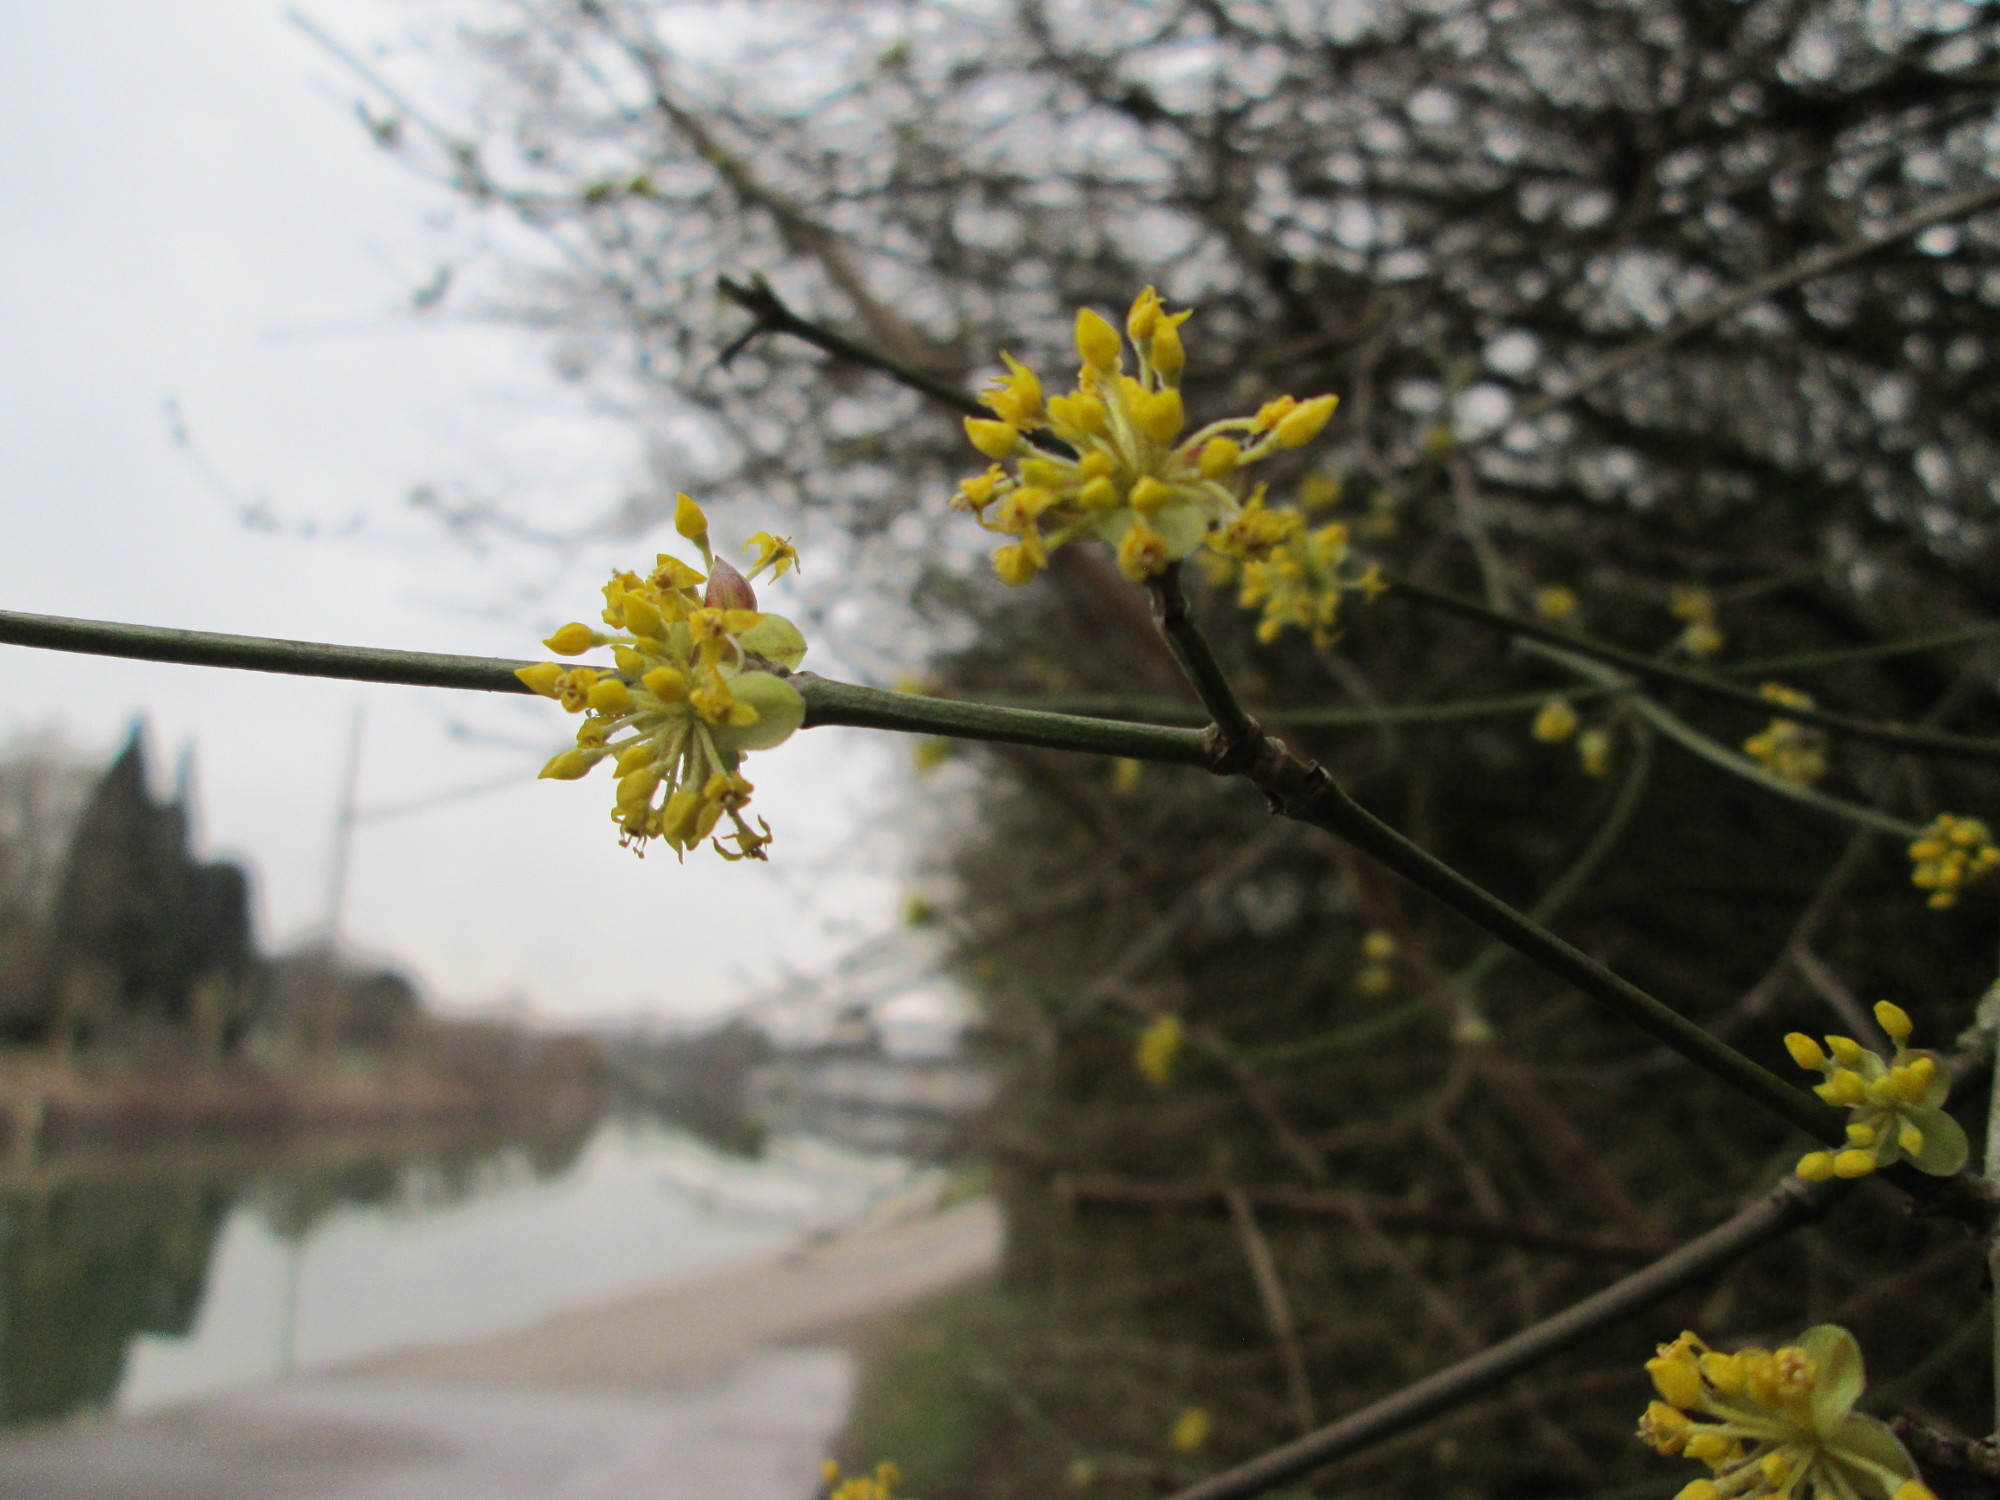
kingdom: Plantae
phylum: Tracheophyta
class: Magnoliopsida
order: Cornales
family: Cornaceae
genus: Cornus
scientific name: Cornus mas
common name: Cornelian-cherry
